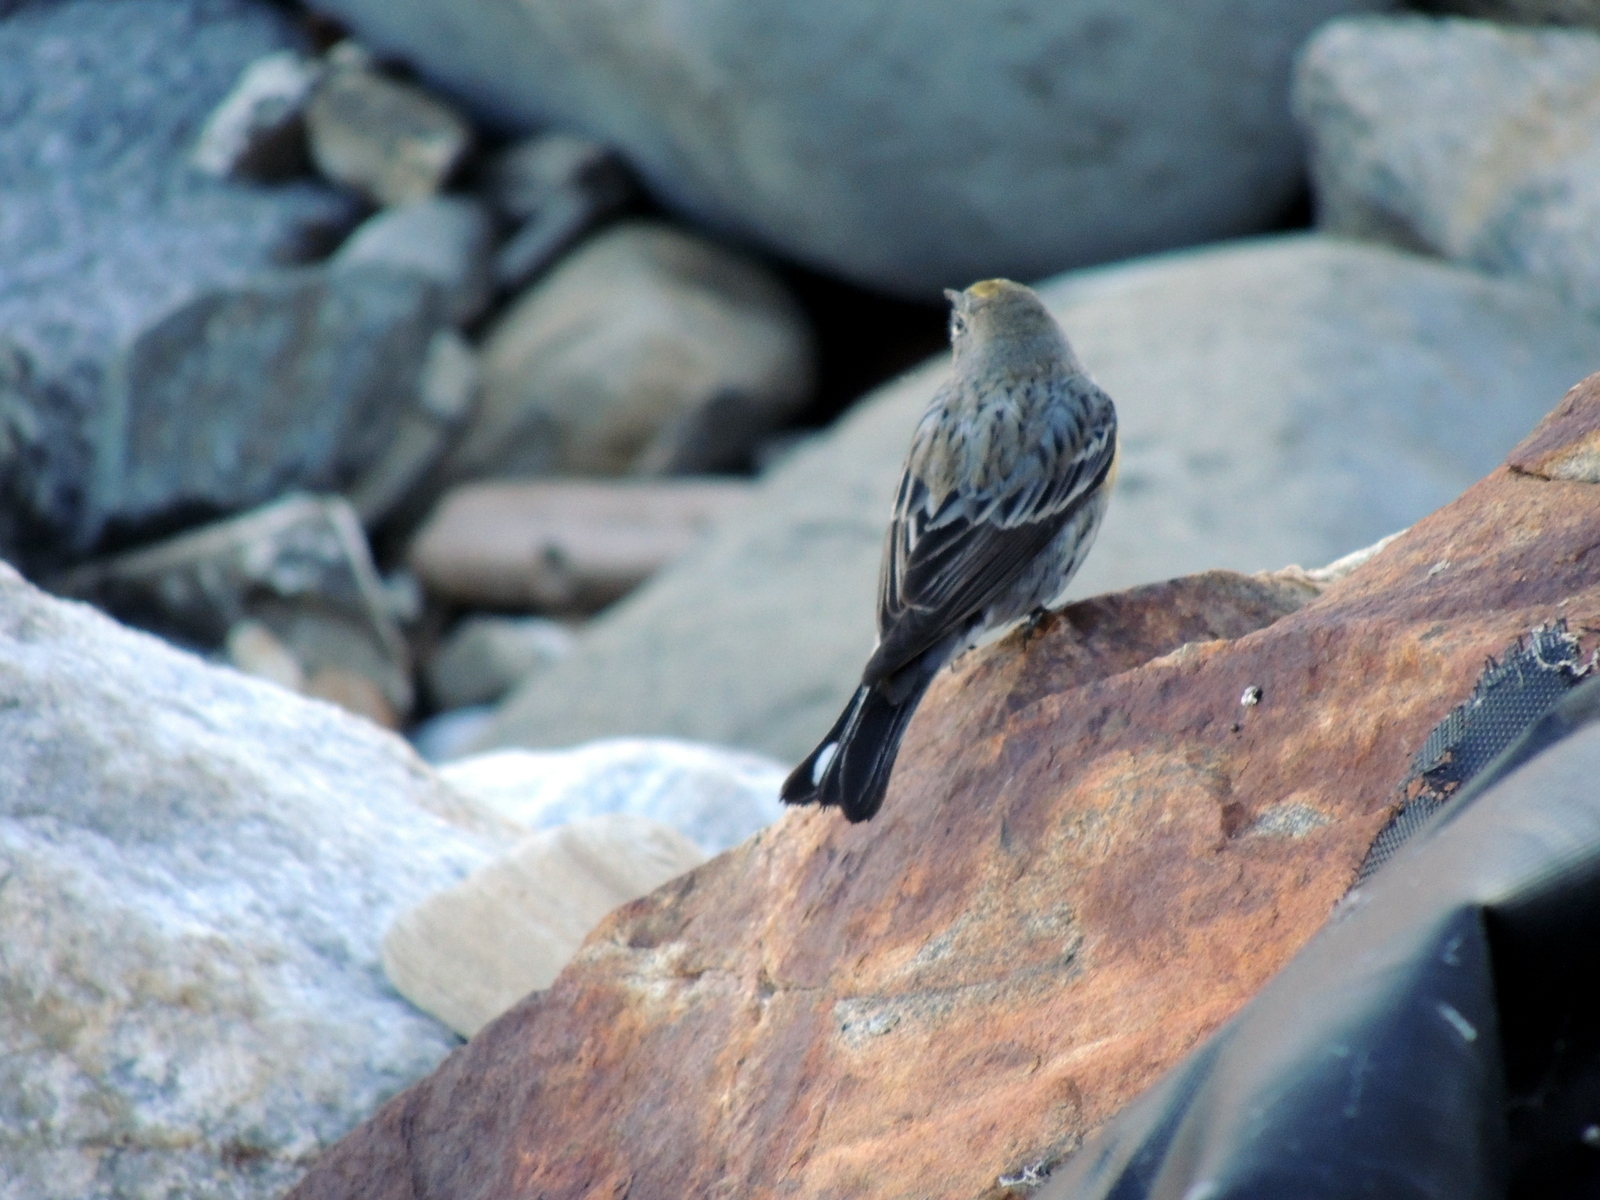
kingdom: Animalia
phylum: Chordata
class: Aves
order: Passeriformes
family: Parulidae
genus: Setophaga
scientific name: Setophaga coronata
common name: Myrtle warbler
